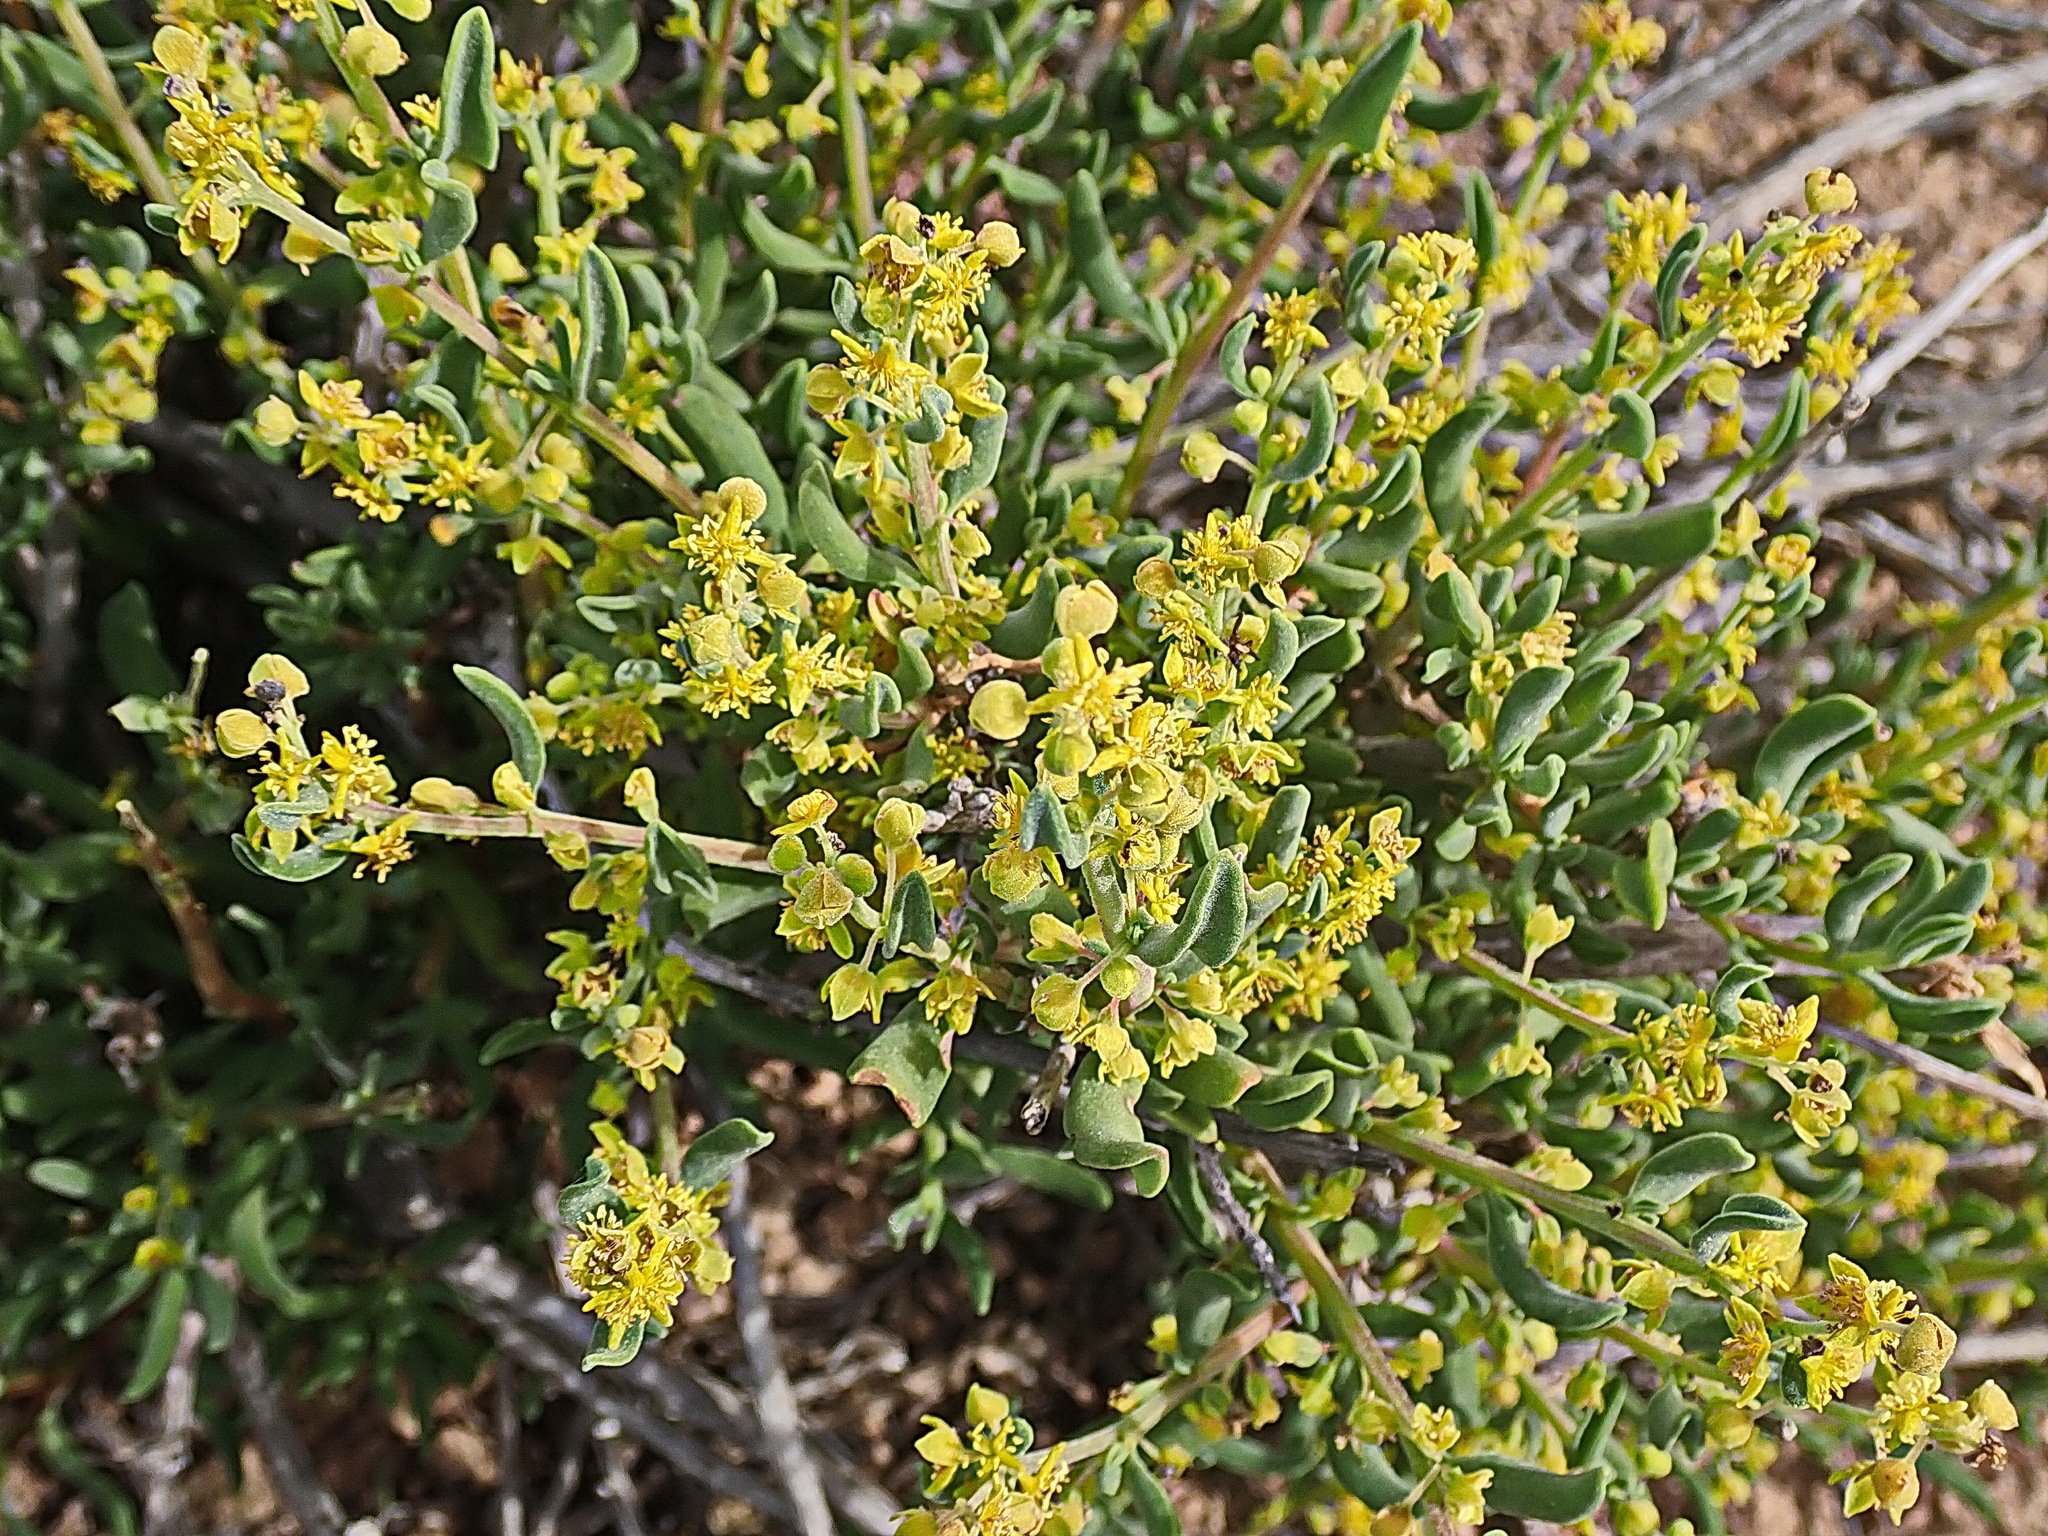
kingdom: Plantae
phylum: Tracheophyta
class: Magnoliopsida
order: Caryophyllales
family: Aizoaceae
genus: Tetragonia
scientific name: Tetragonia fruticosa
